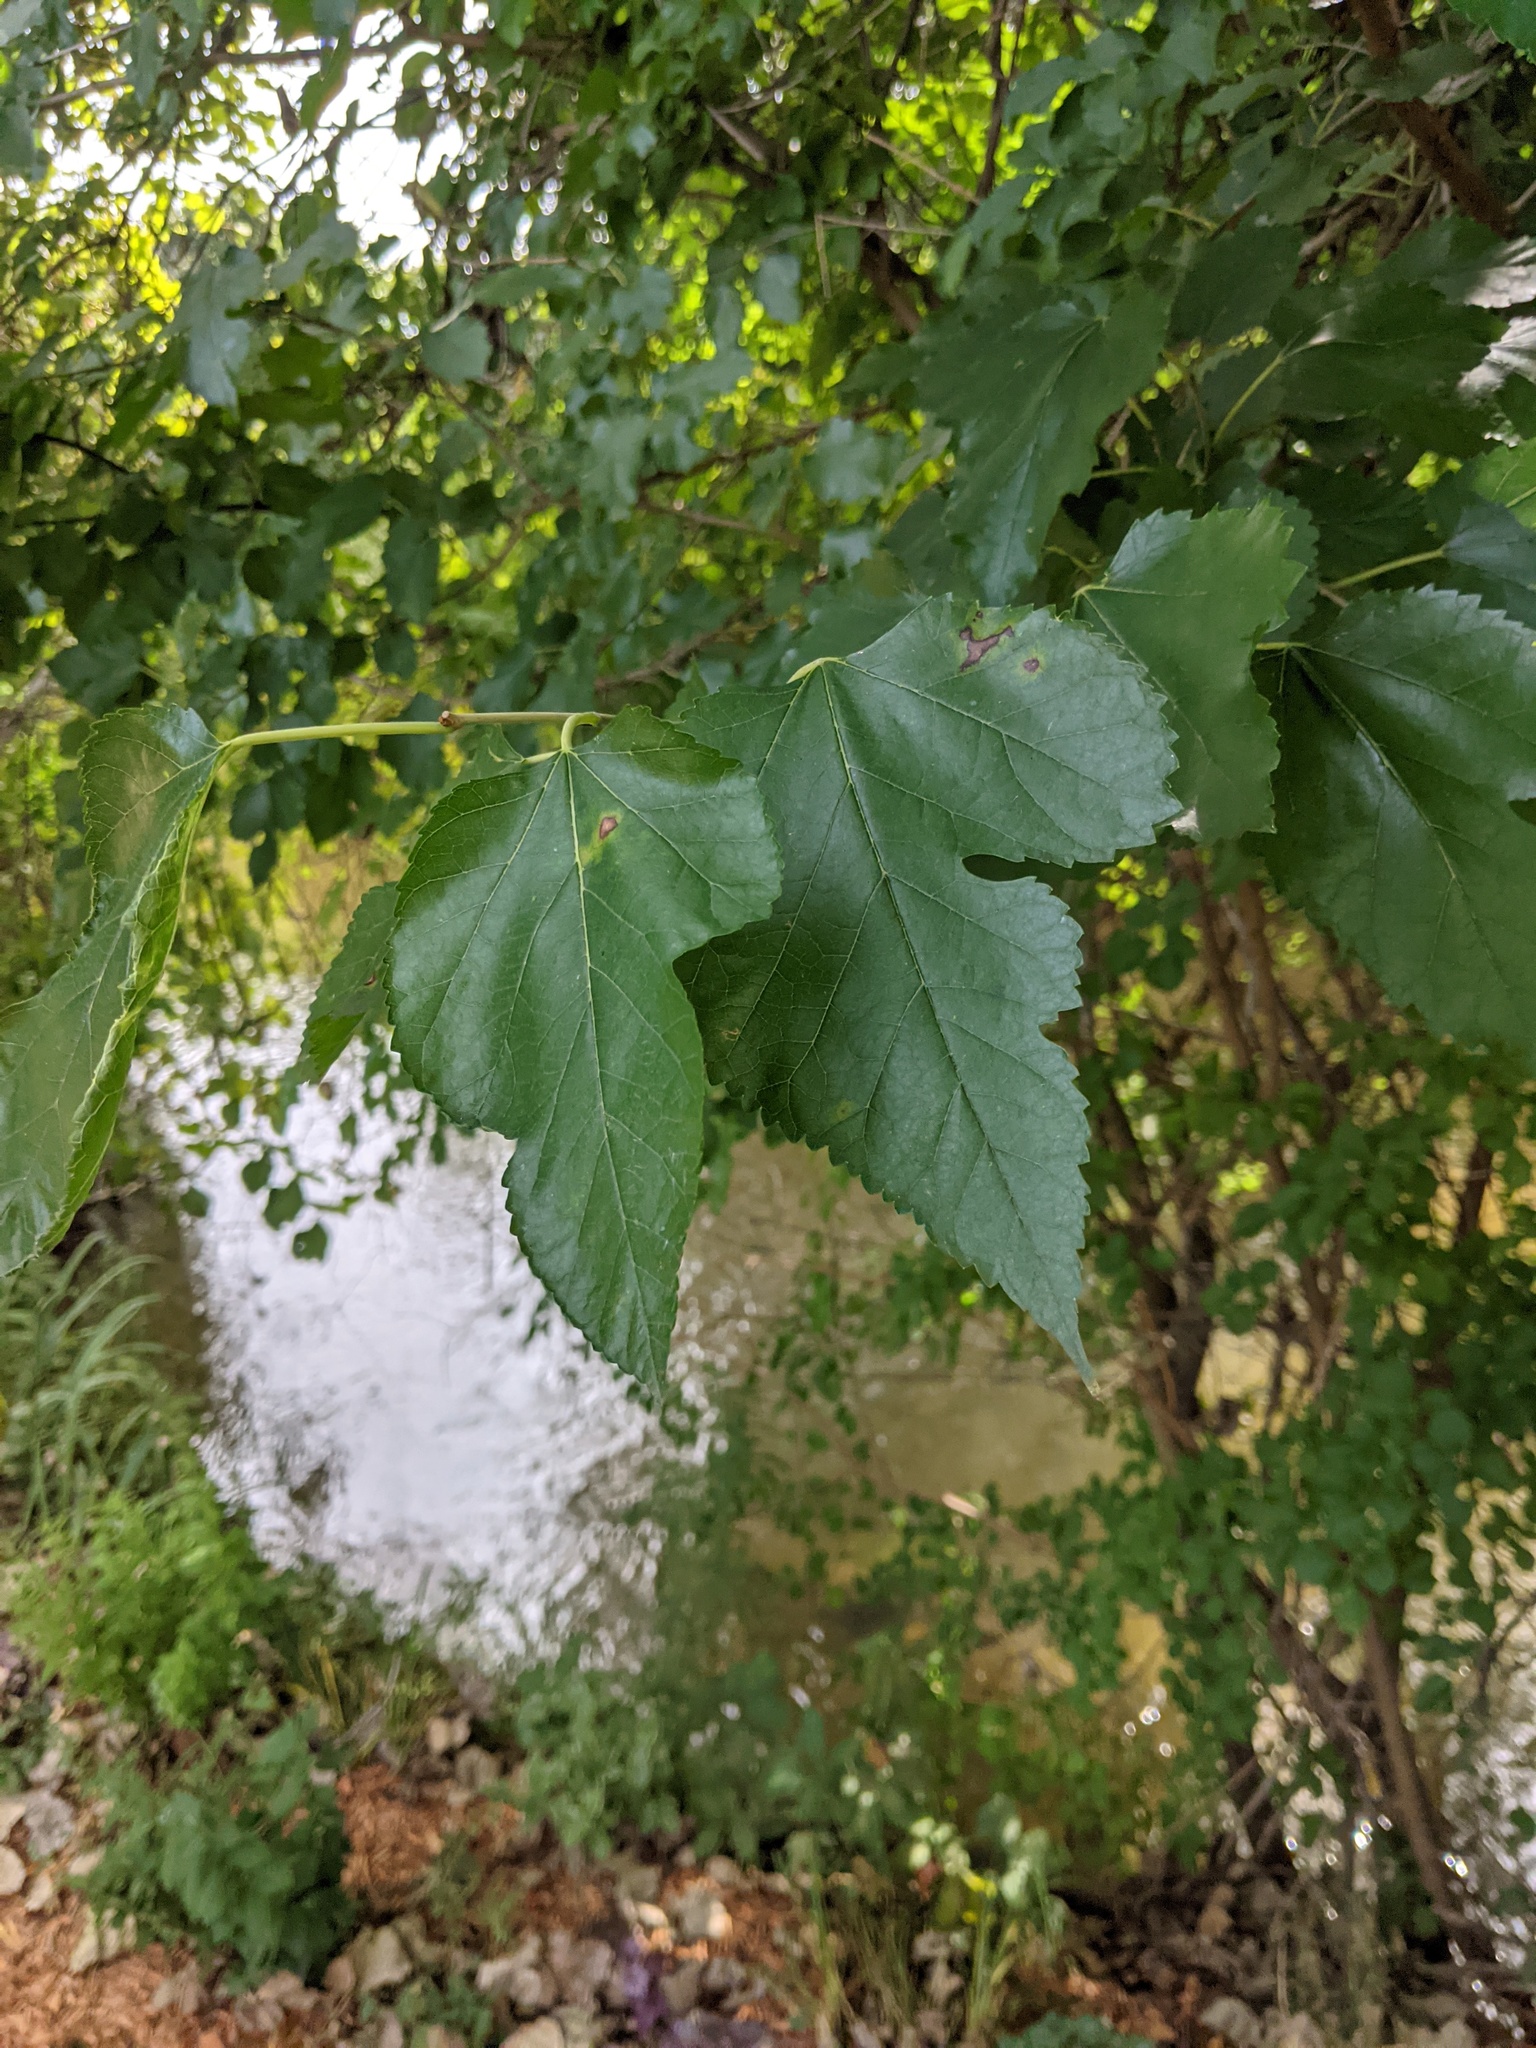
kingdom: Plantae
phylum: Tracheophyta
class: Magnoliopsida
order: Rosales
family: Moraceae
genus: Morus
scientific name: Morus alba
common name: White mulberry
